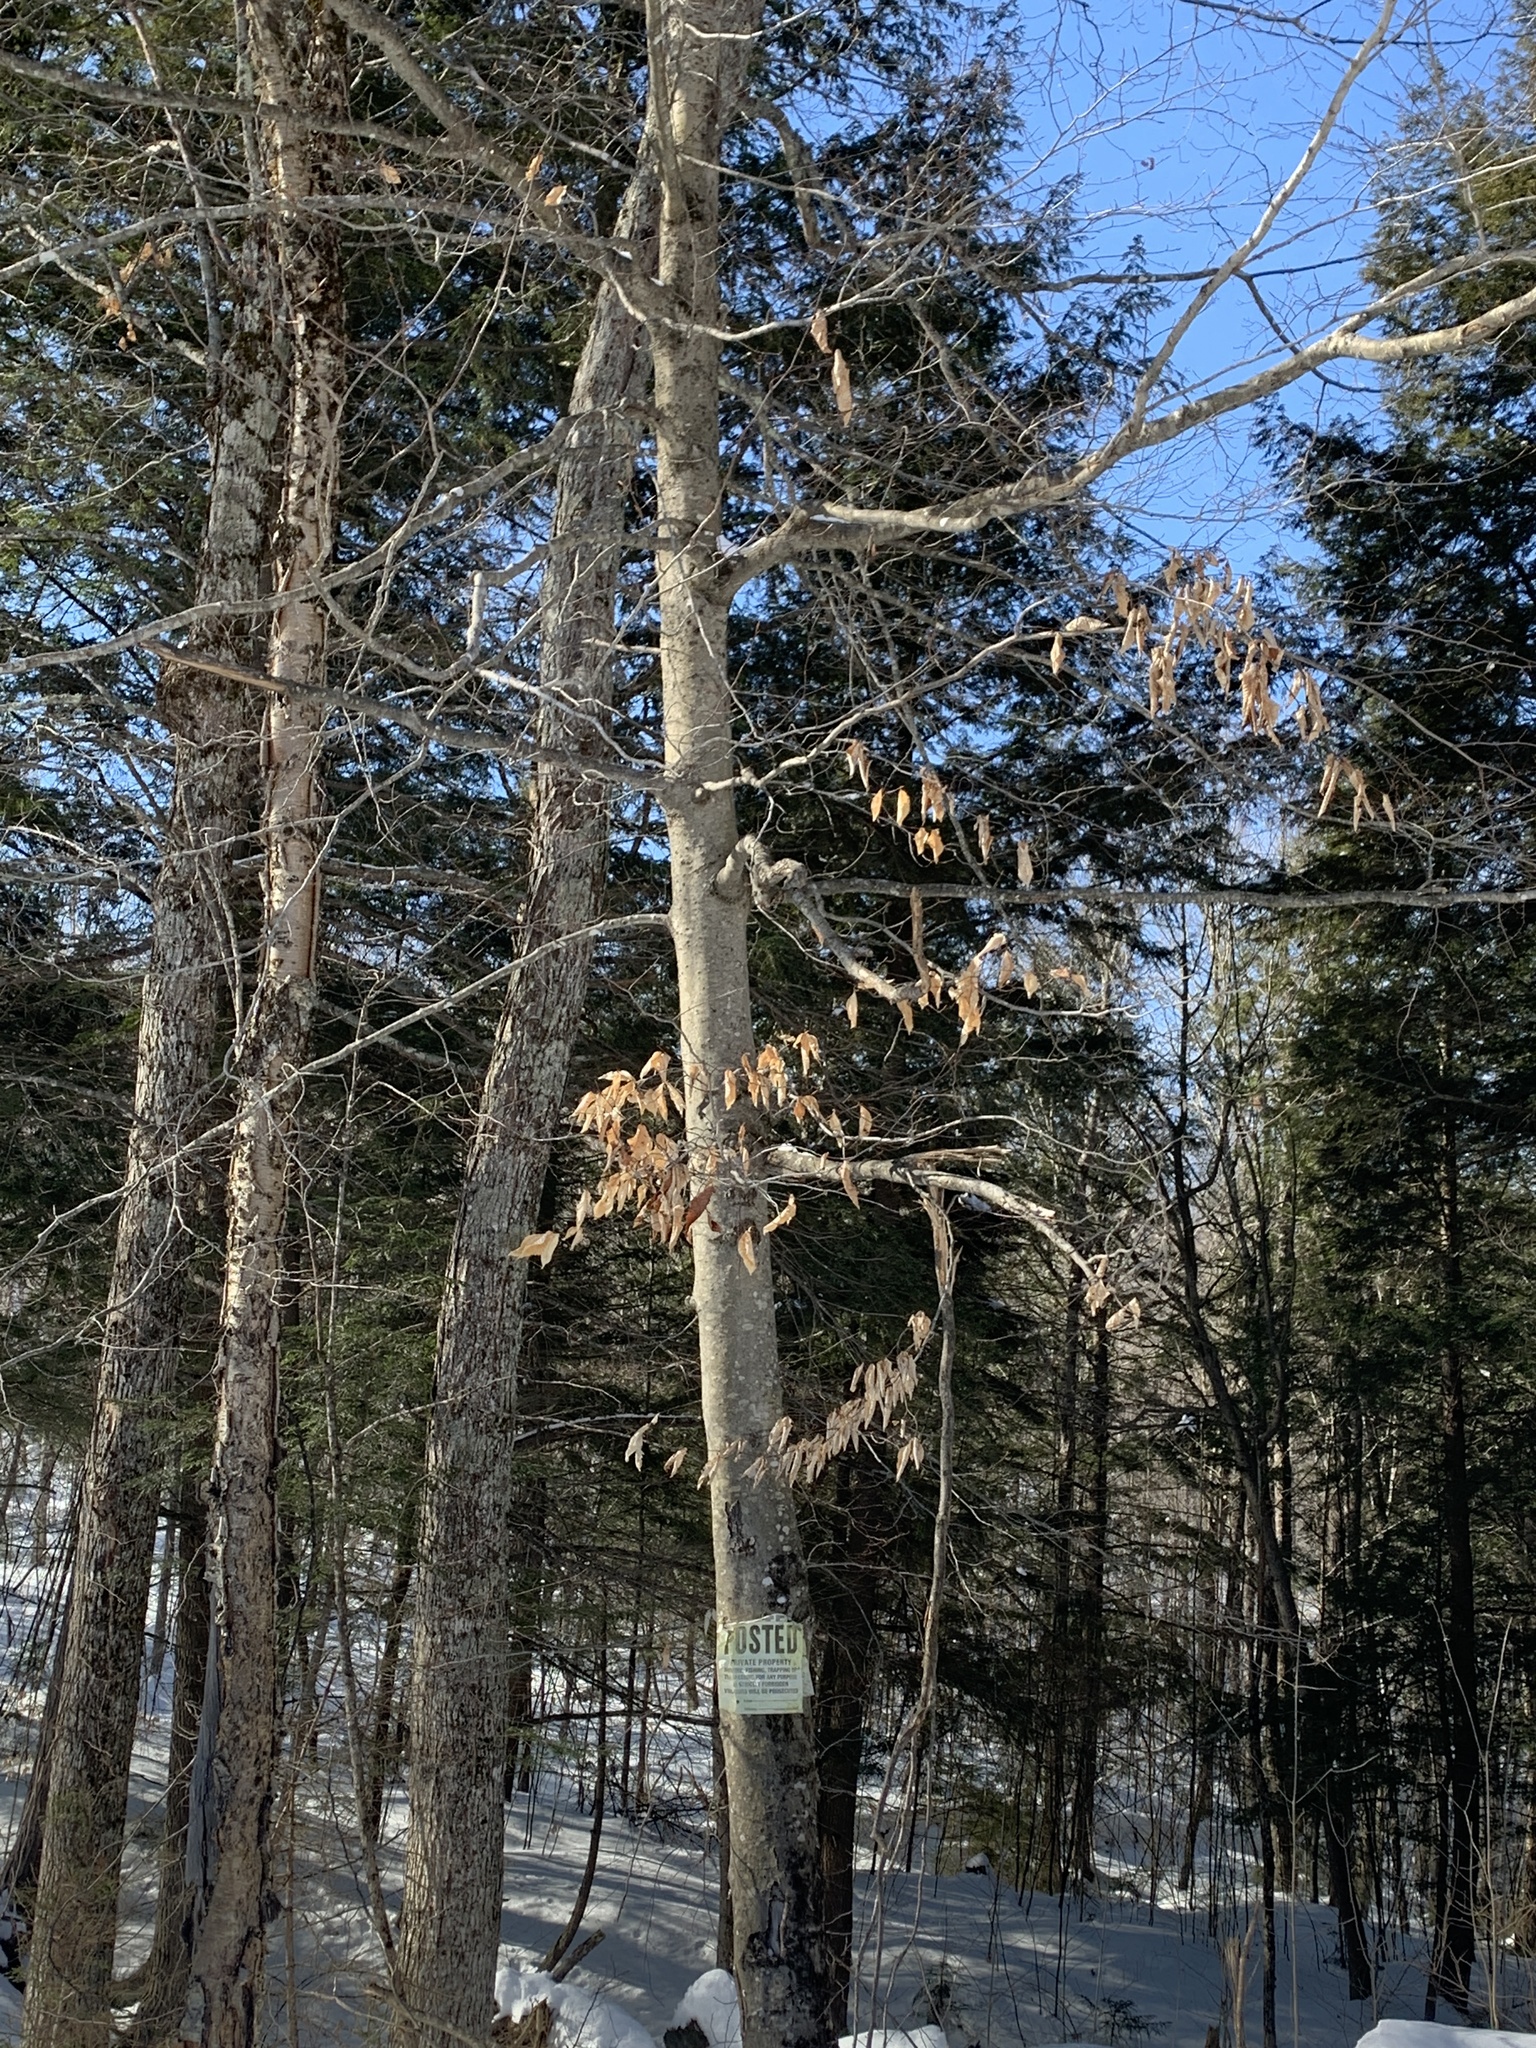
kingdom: Plantae
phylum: Tracheophyta
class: Magnoliopsida
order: Fagales
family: Fagaceae
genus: Fagus
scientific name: Fagus grandifolia
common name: American beech
